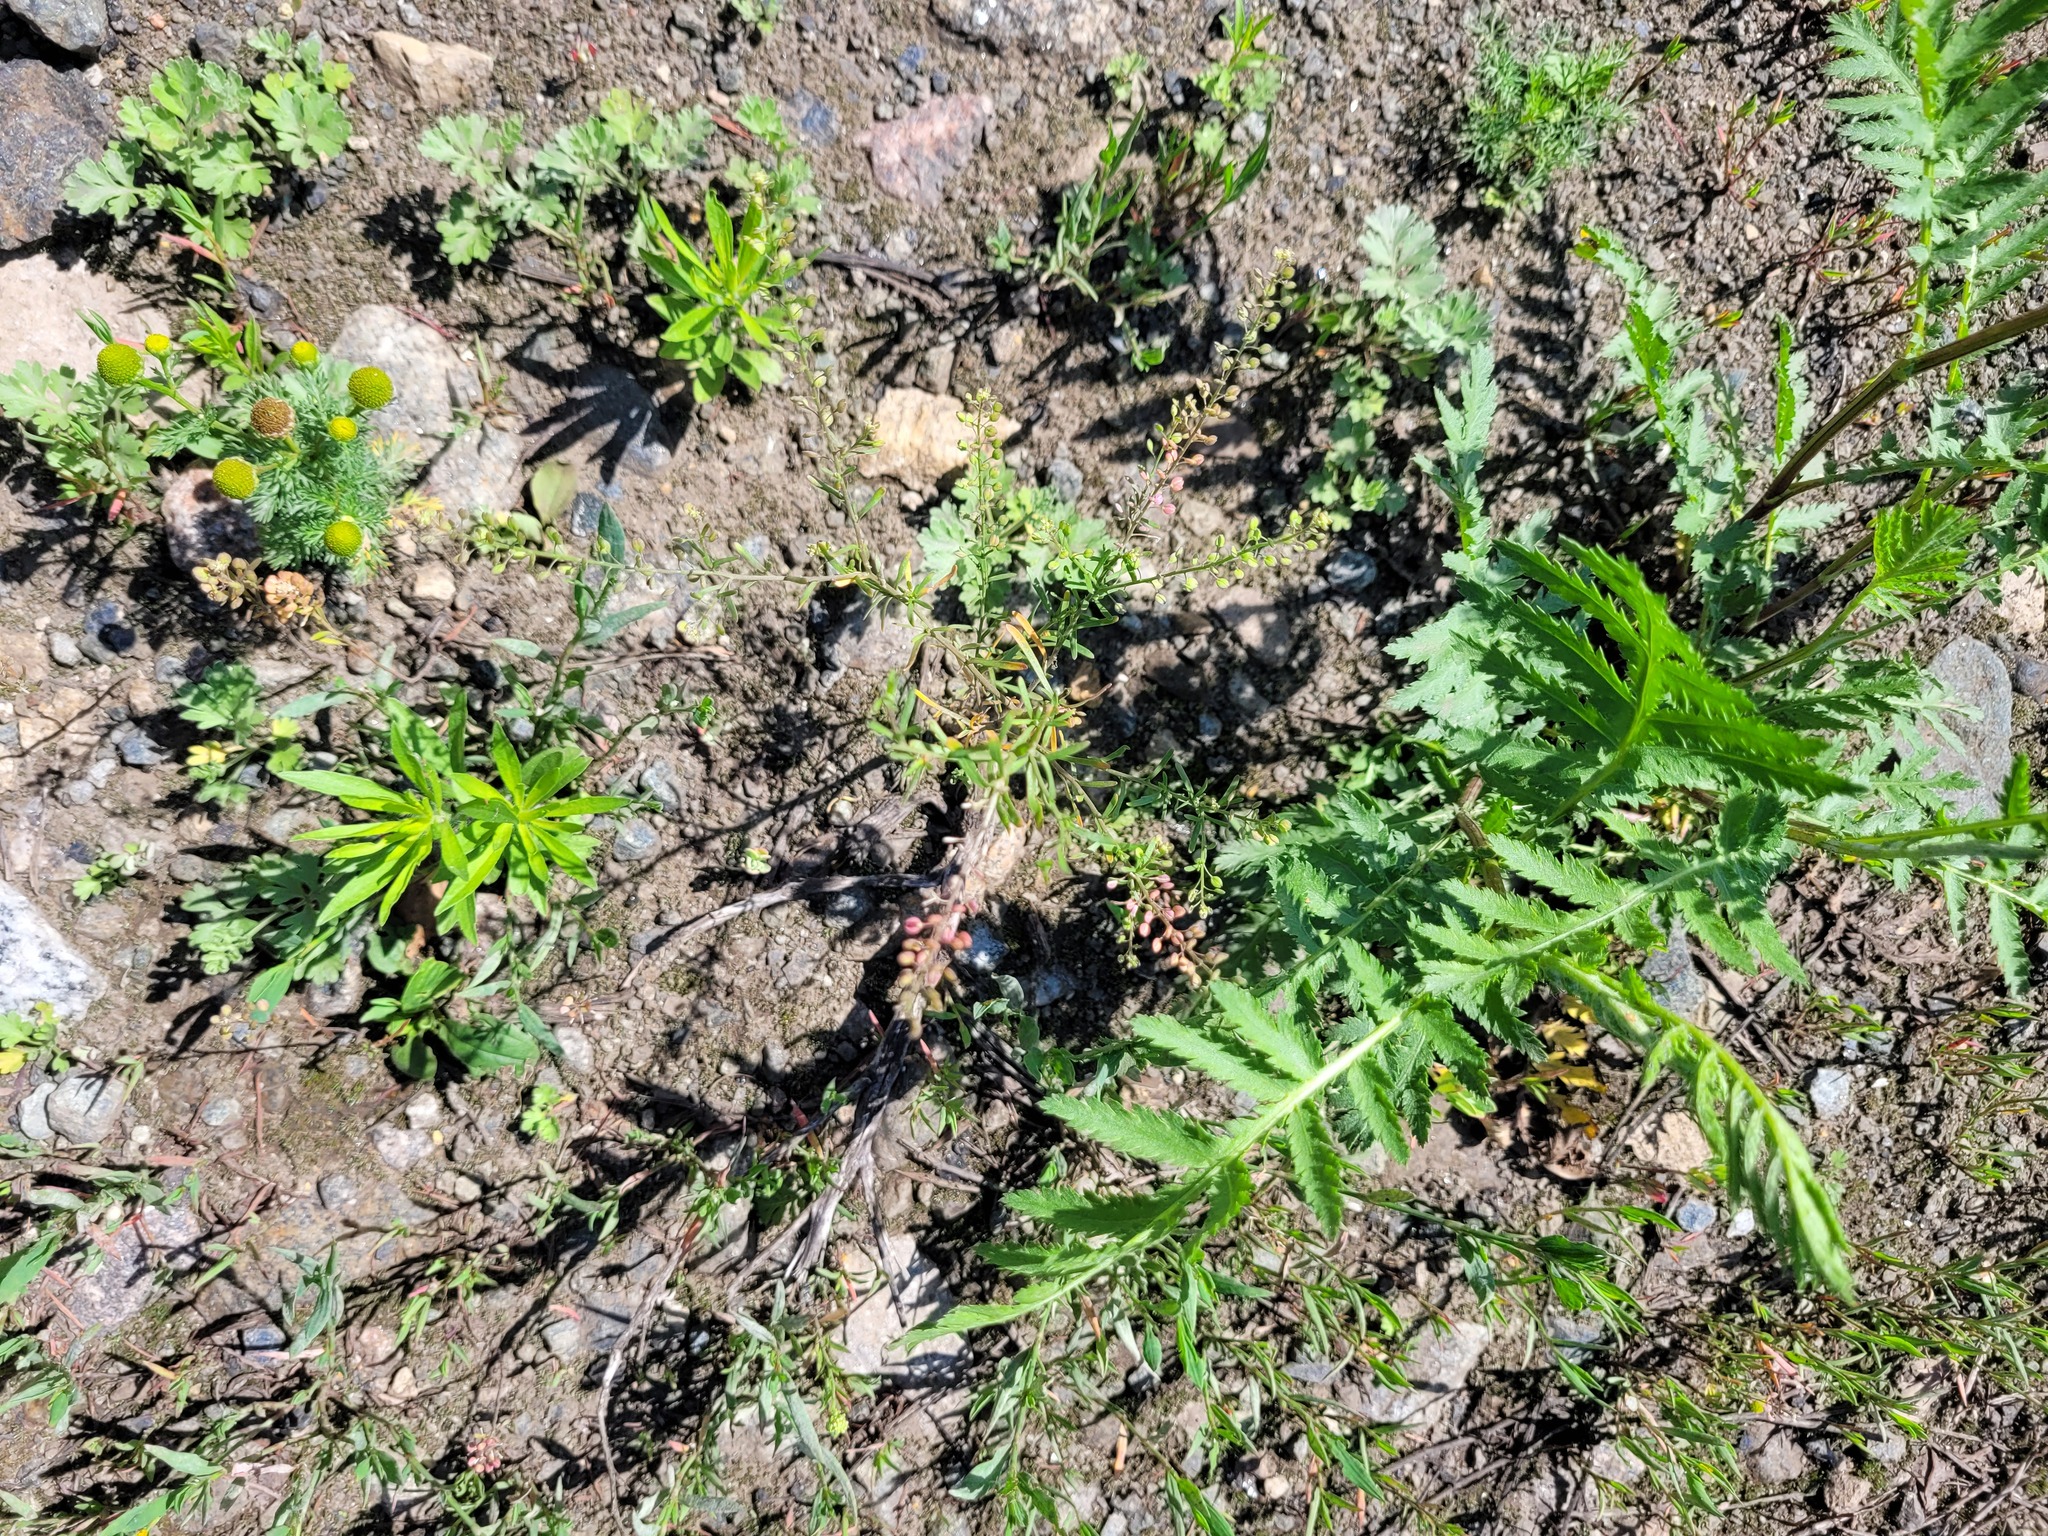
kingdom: Plantae
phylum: Tracheophyta
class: Magnoliopsida
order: Brassicales
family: Brassicaceae
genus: Lepidium
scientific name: Lepidium ruderale
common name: Narrow-leaved pepperwort
